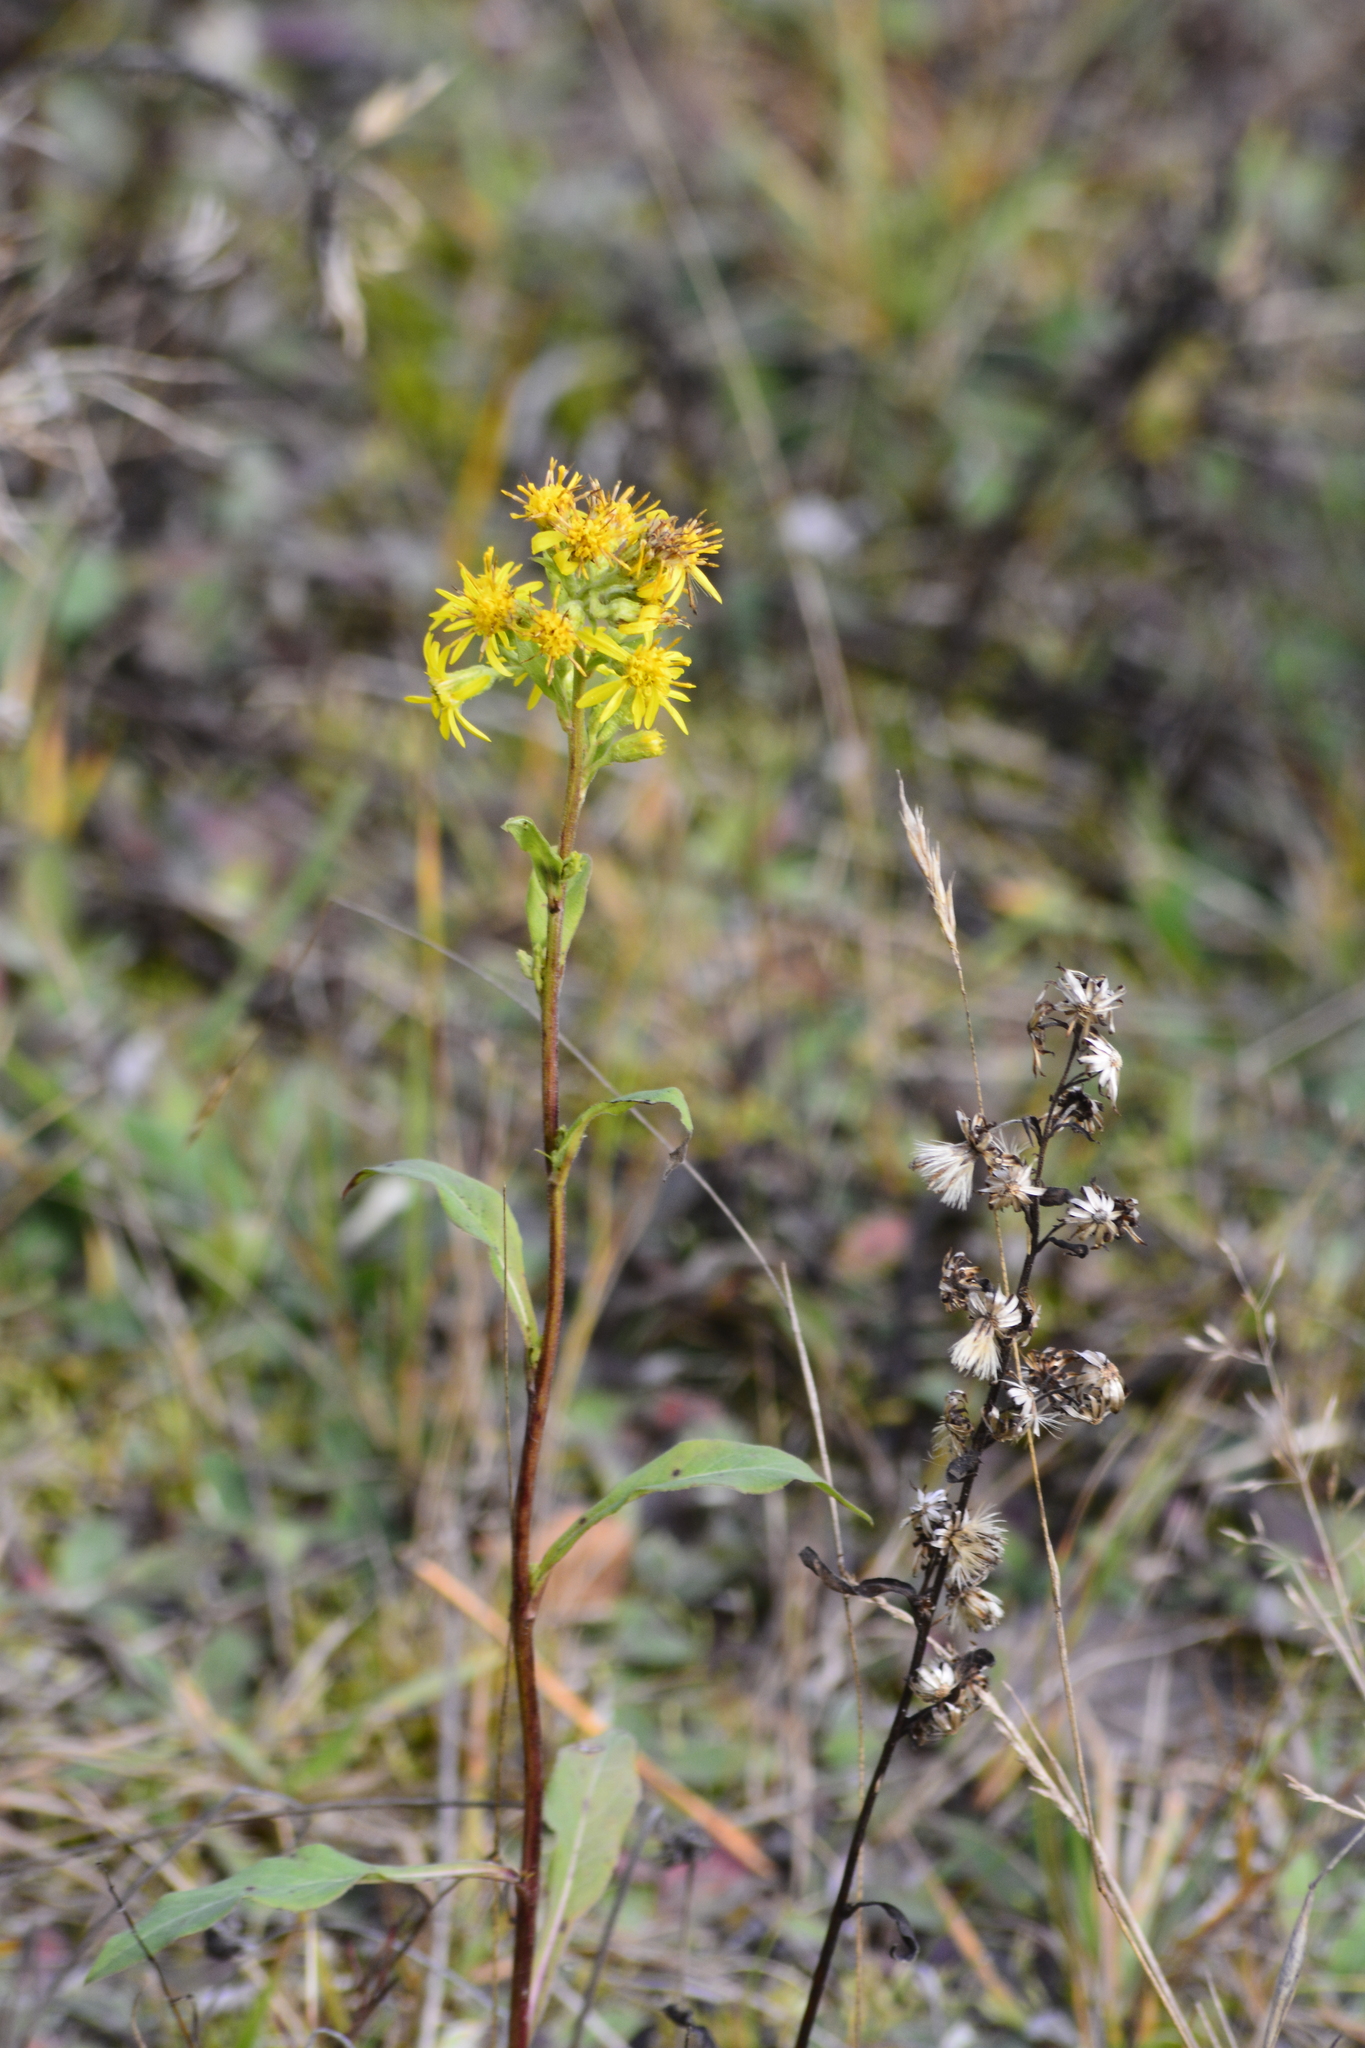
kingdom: Plantae
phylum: Tracheophyta
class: Magnoliopsida
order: Asterales
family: Asteraceae
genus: Solidago
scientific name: Solidago virgaurea
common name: Goldenrod
